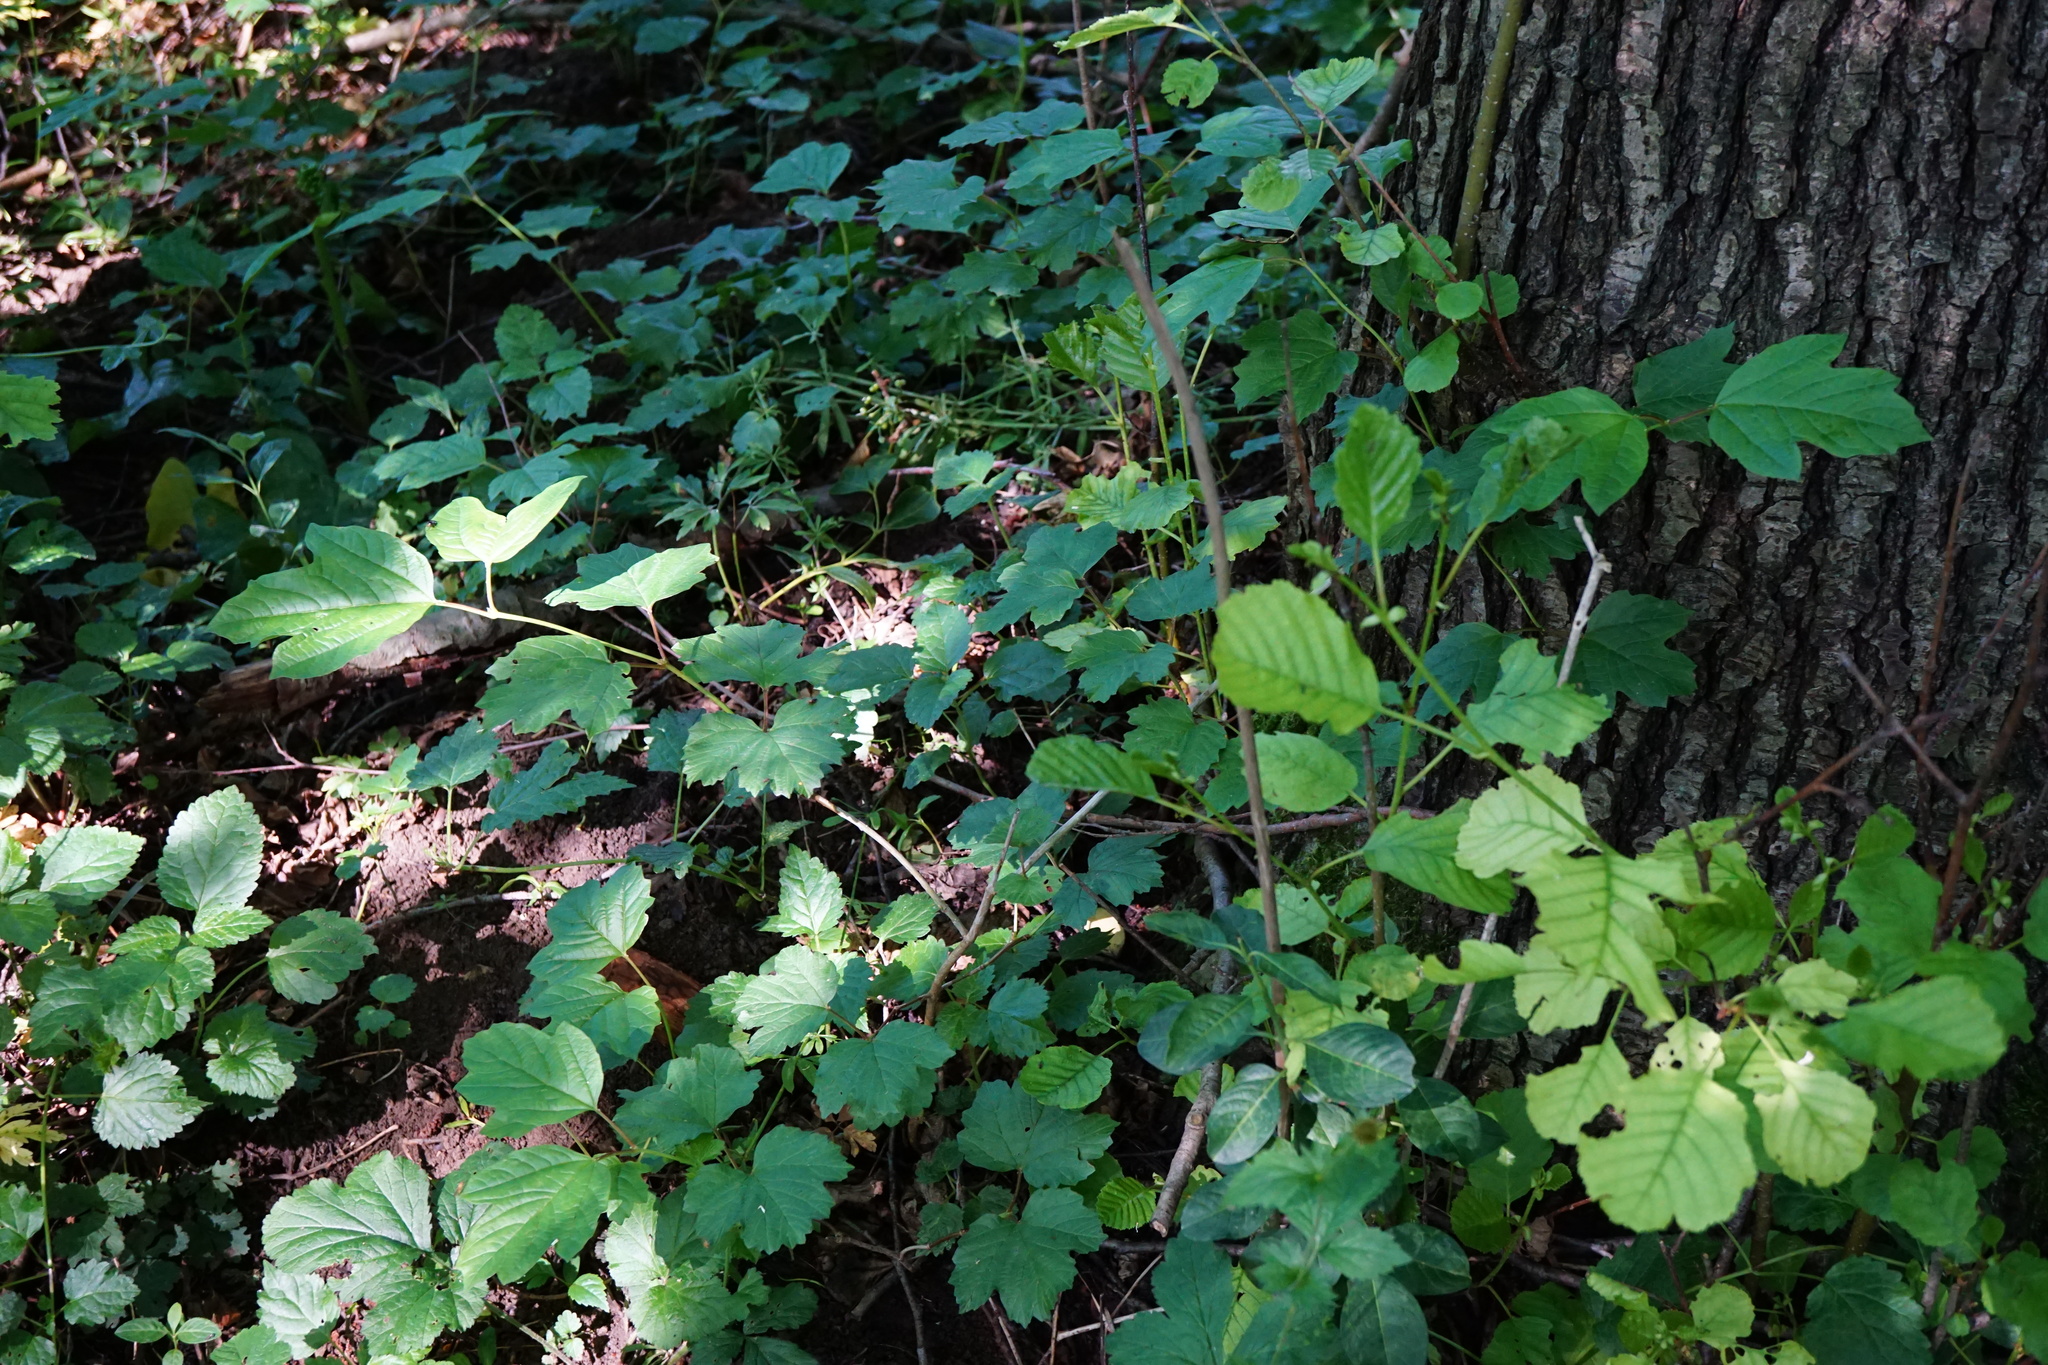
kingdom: Plantae
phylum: Tracheophyta
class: Magnoliopsida
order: Dipsacales
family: Viburnaceae
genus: Viburnum
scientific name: Viburnum opulus
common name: Guelder-rose
